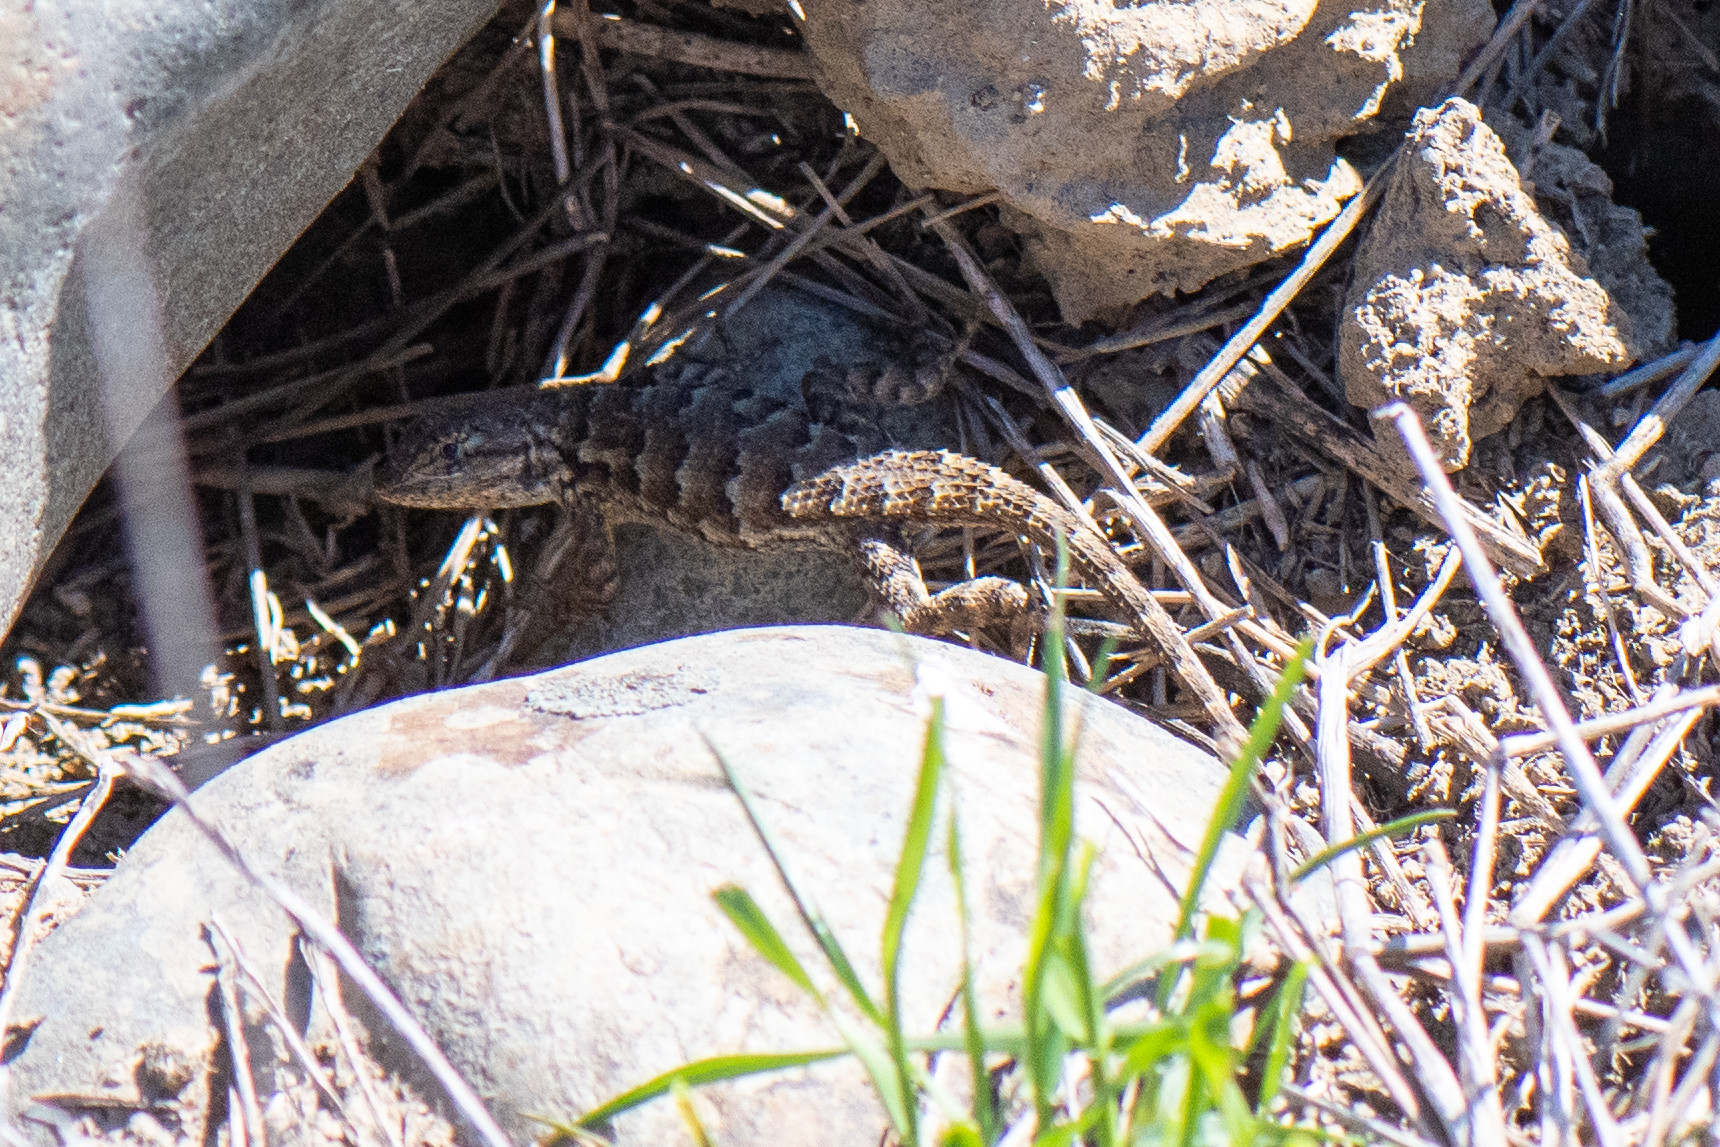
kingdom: Animalia
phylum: Chordata
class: Squamata
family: Phrynosomatidae
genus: Sceloporus
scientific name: Sceloporus occidentalis
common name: Western fence lizard
